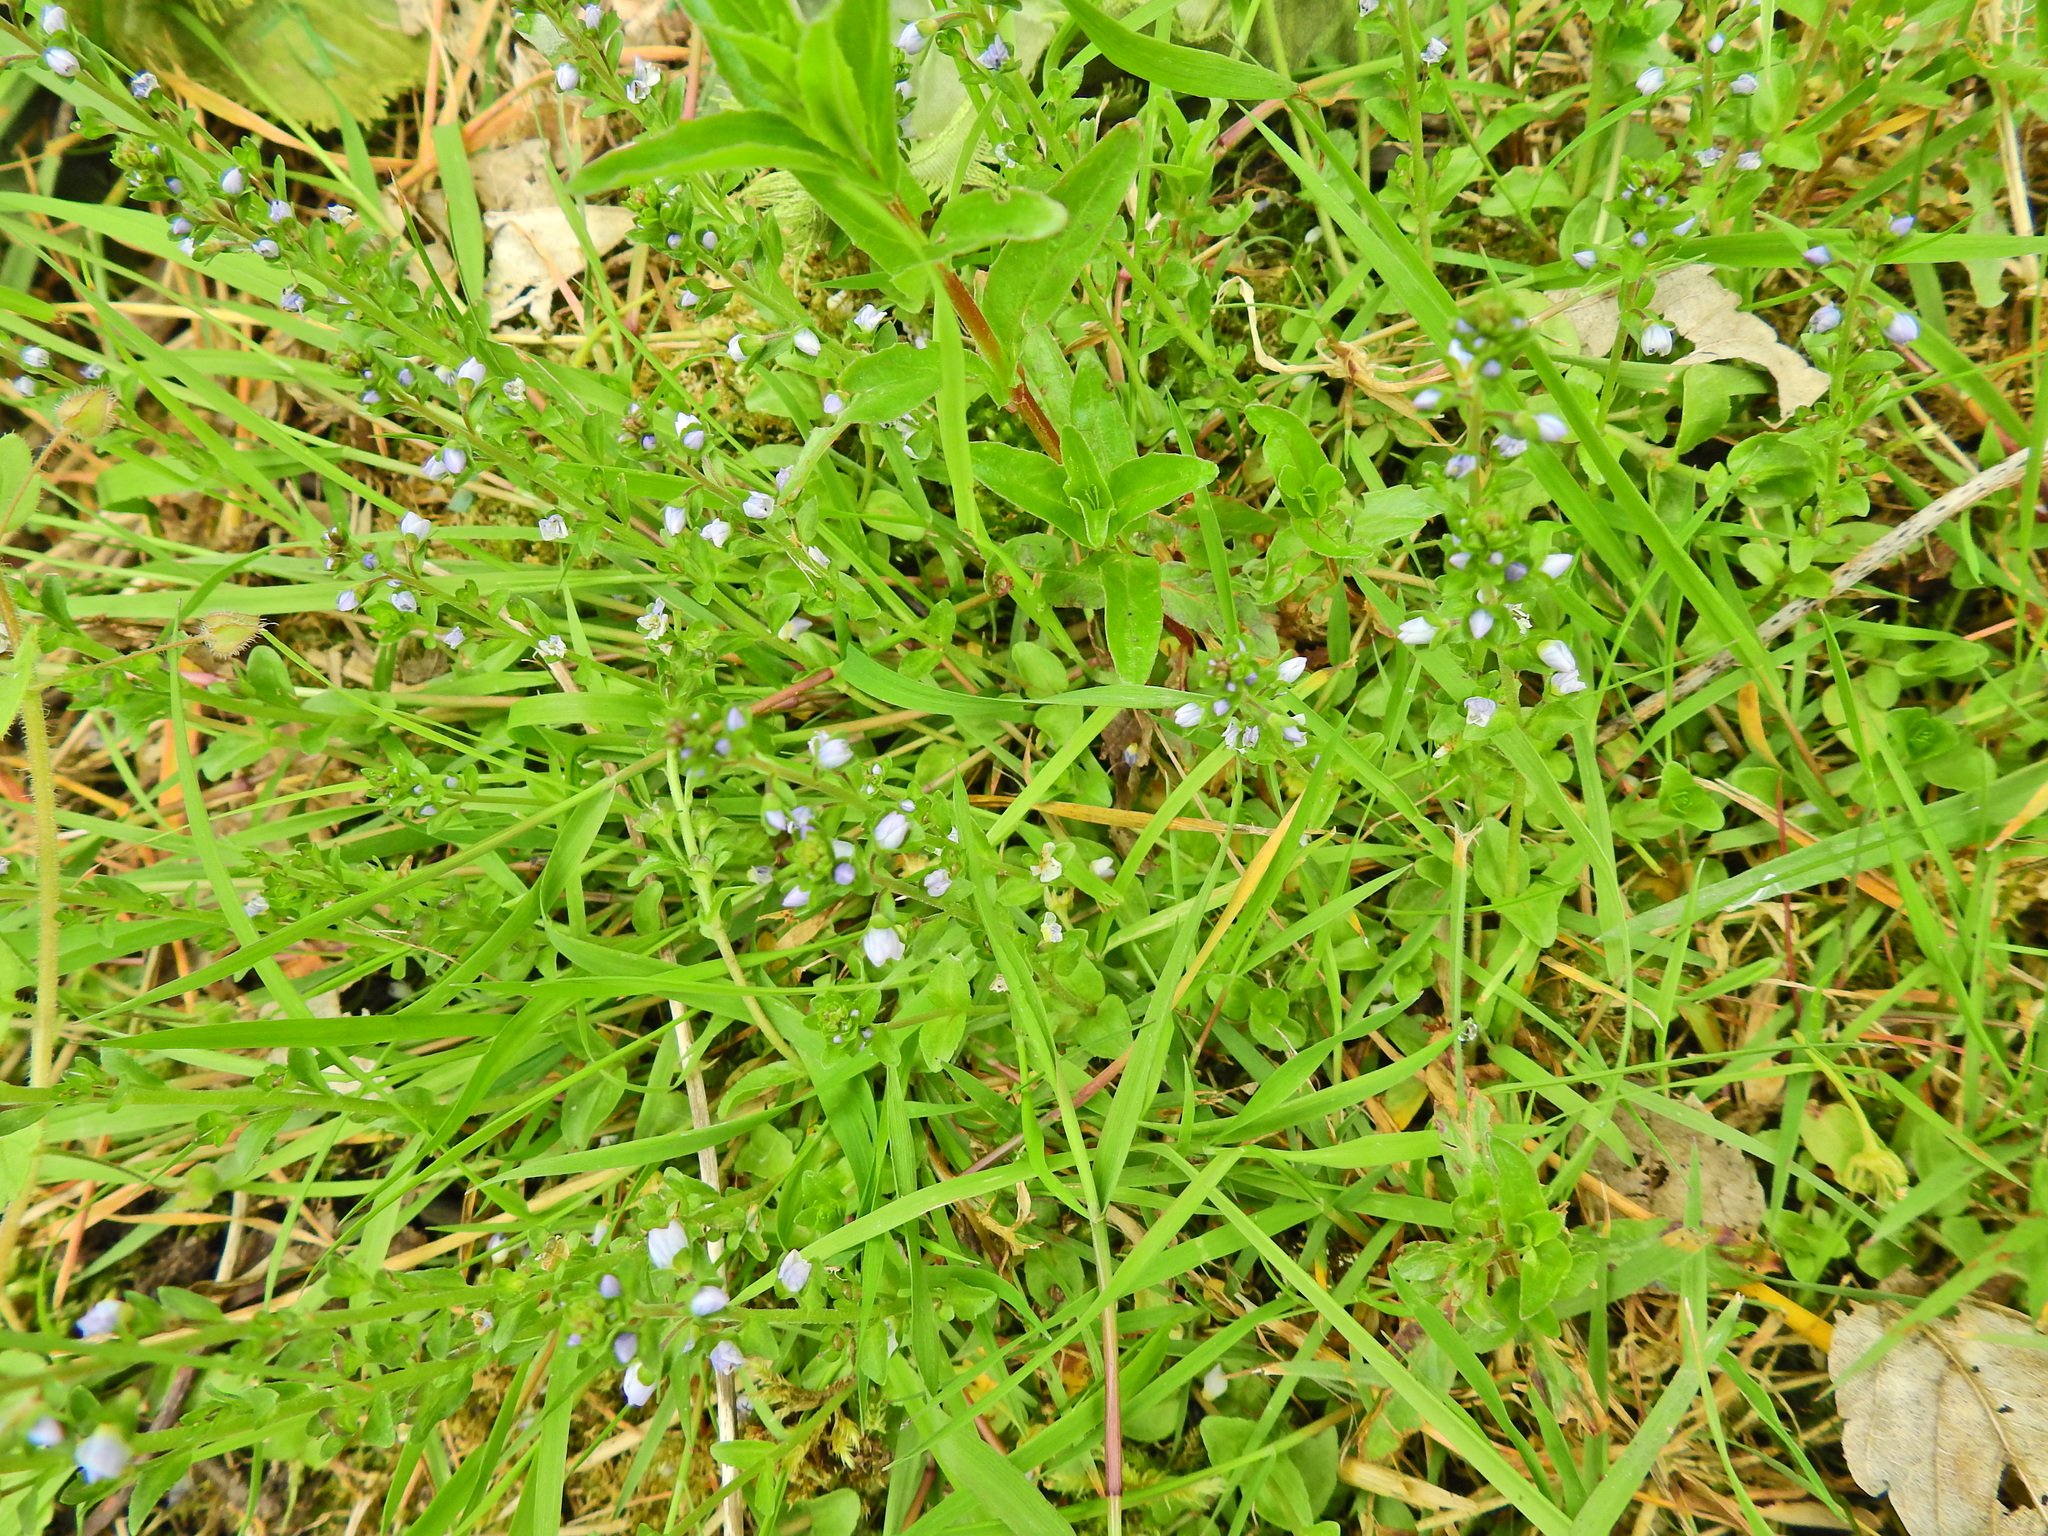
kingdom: Plantae
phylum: Tracheophyta
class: Magnoliopsida
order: Lamiales
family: Plantaginaceae
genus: Veronica
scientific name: Veronica serpyllifolia
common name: Thyme-leaved speedwell
